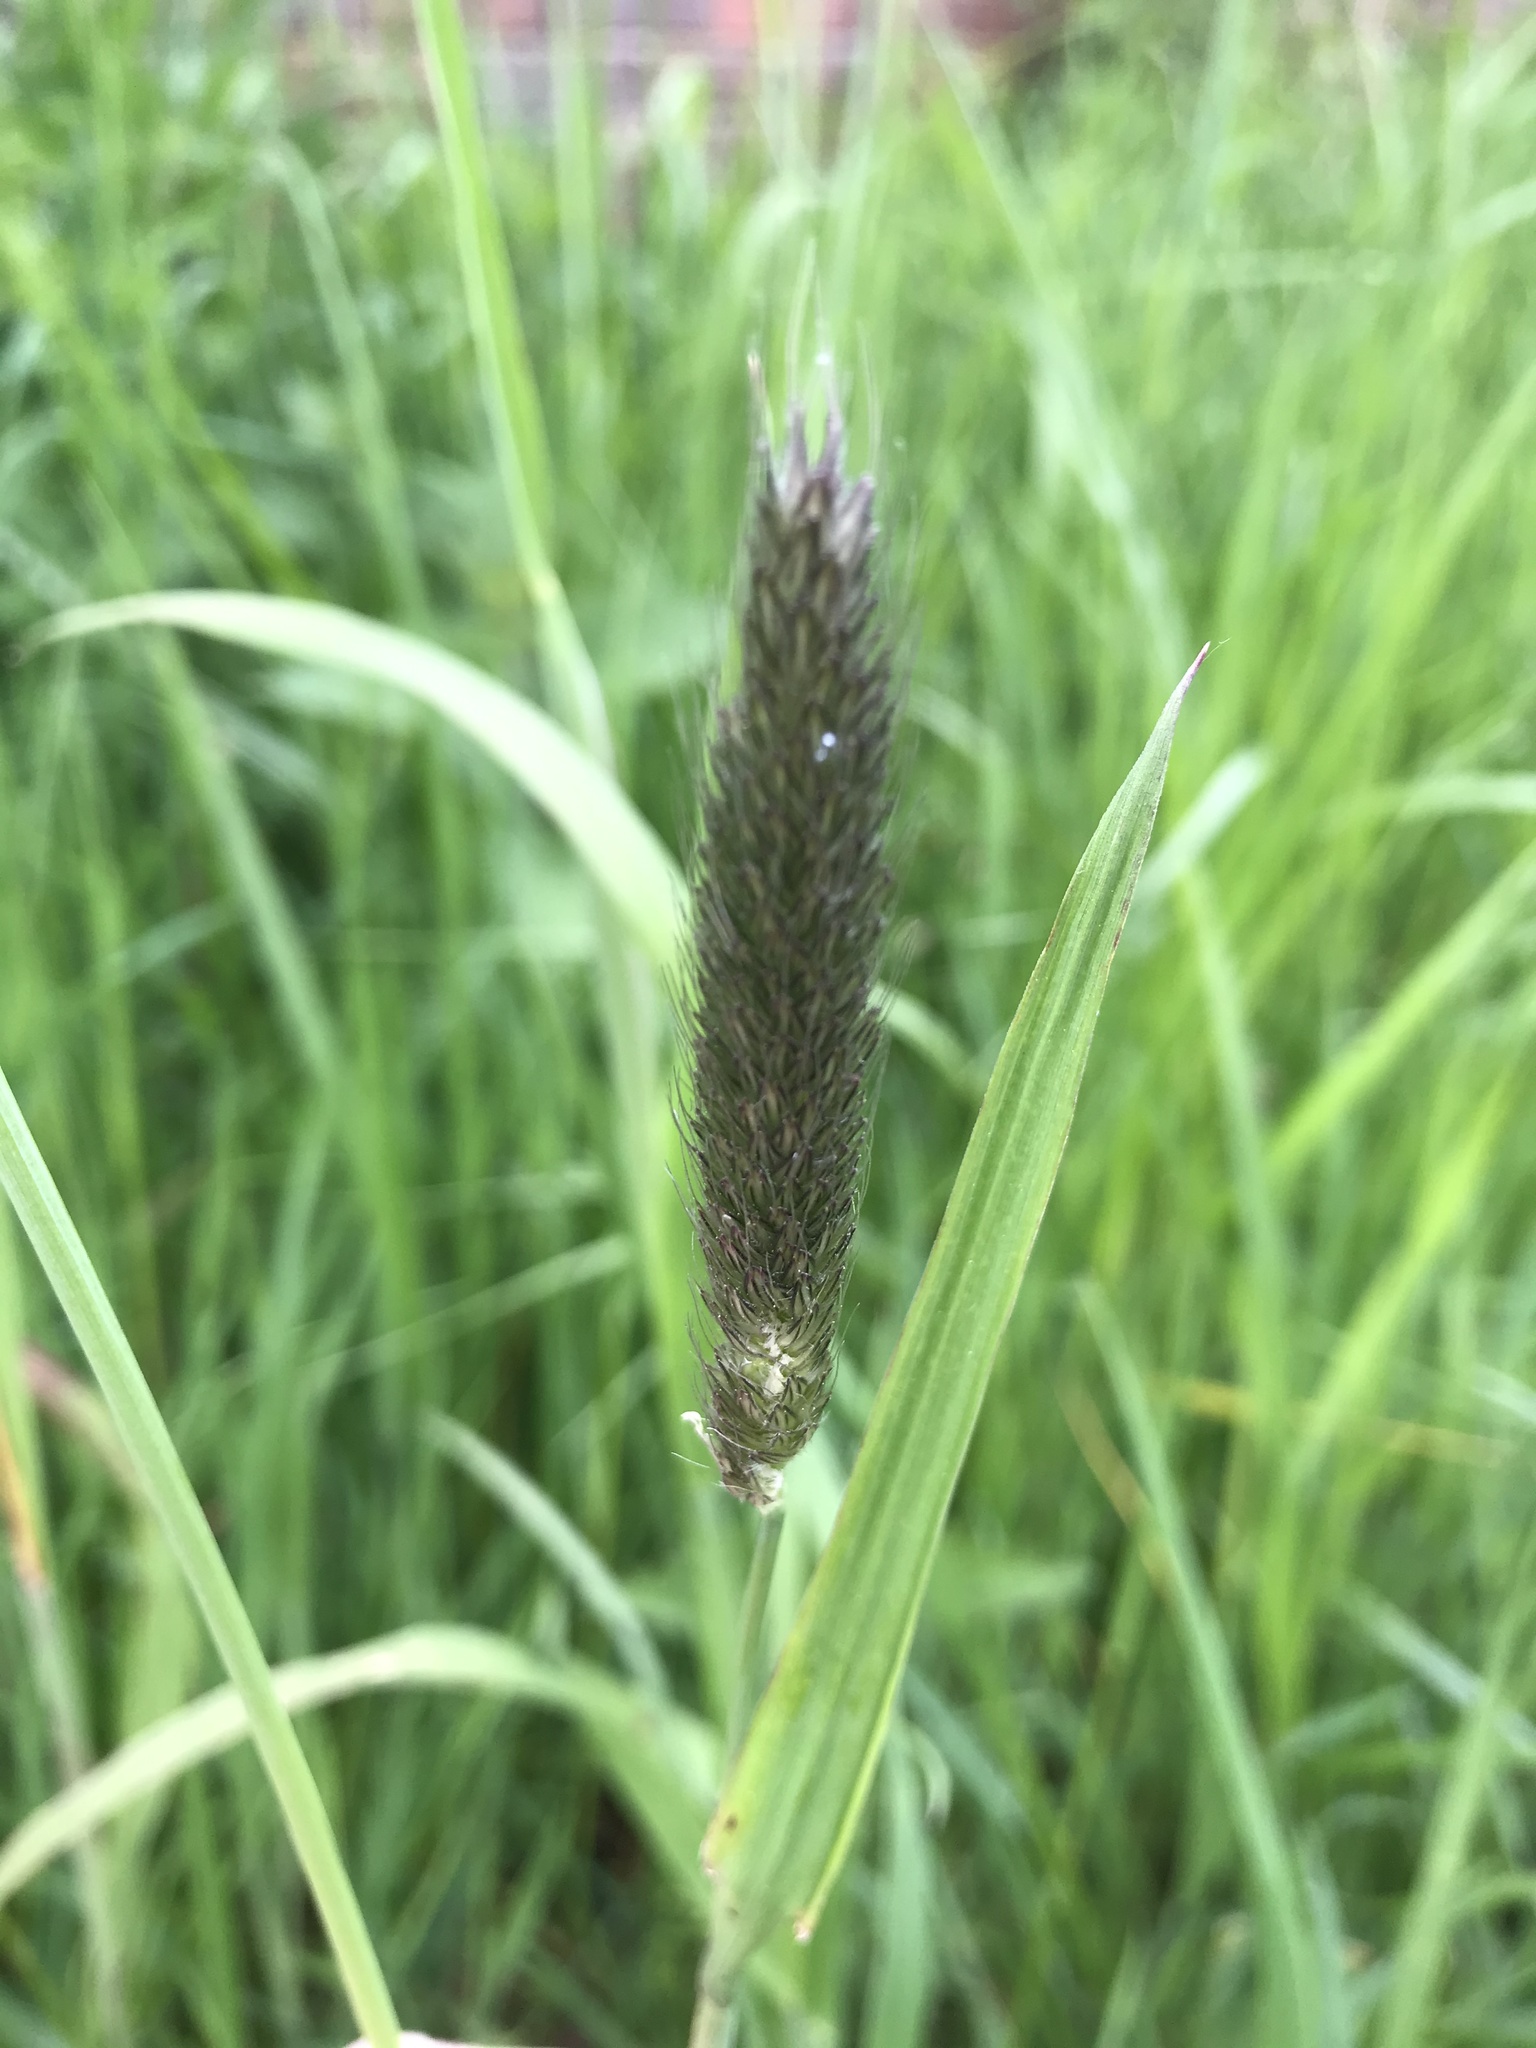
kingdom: Plantae
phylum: Tracheophyta
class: Liliopsida
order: Poales
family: Poaceae
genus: Alopecurus
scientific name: Alopecurus pratensis
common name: Meadow foxtail
